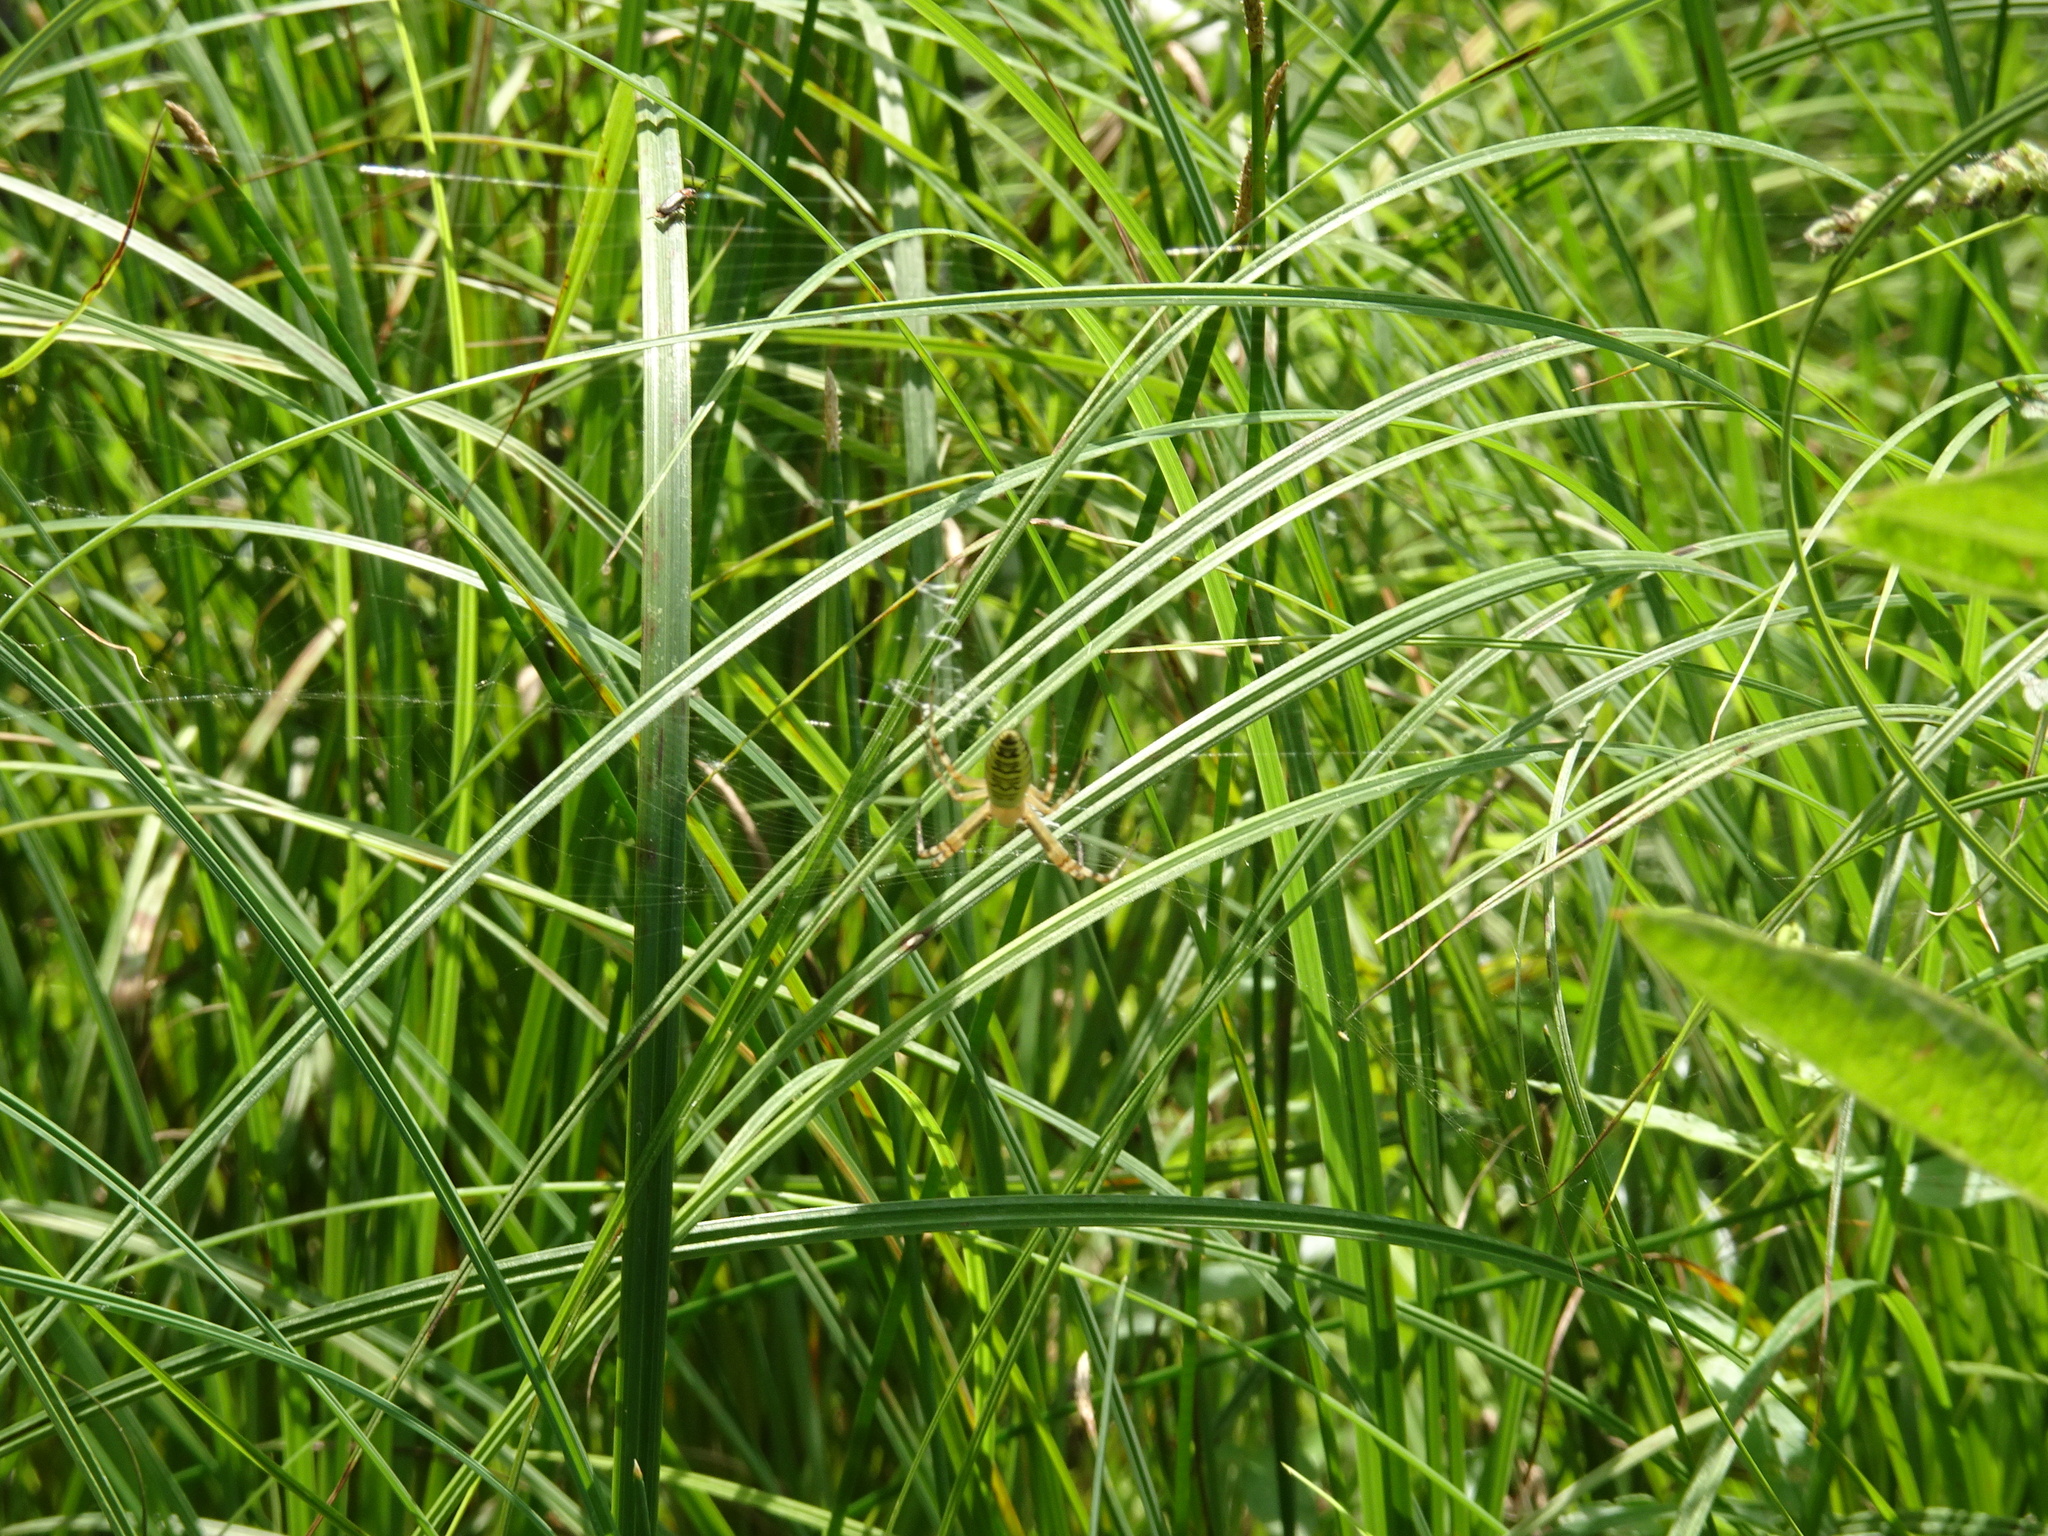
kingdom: Animalia
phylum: Arthropoda
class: Arachnida
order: Araneae
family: Araneidae
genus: Argiope
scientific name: Argiope bruennichi
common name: Wasp spider
